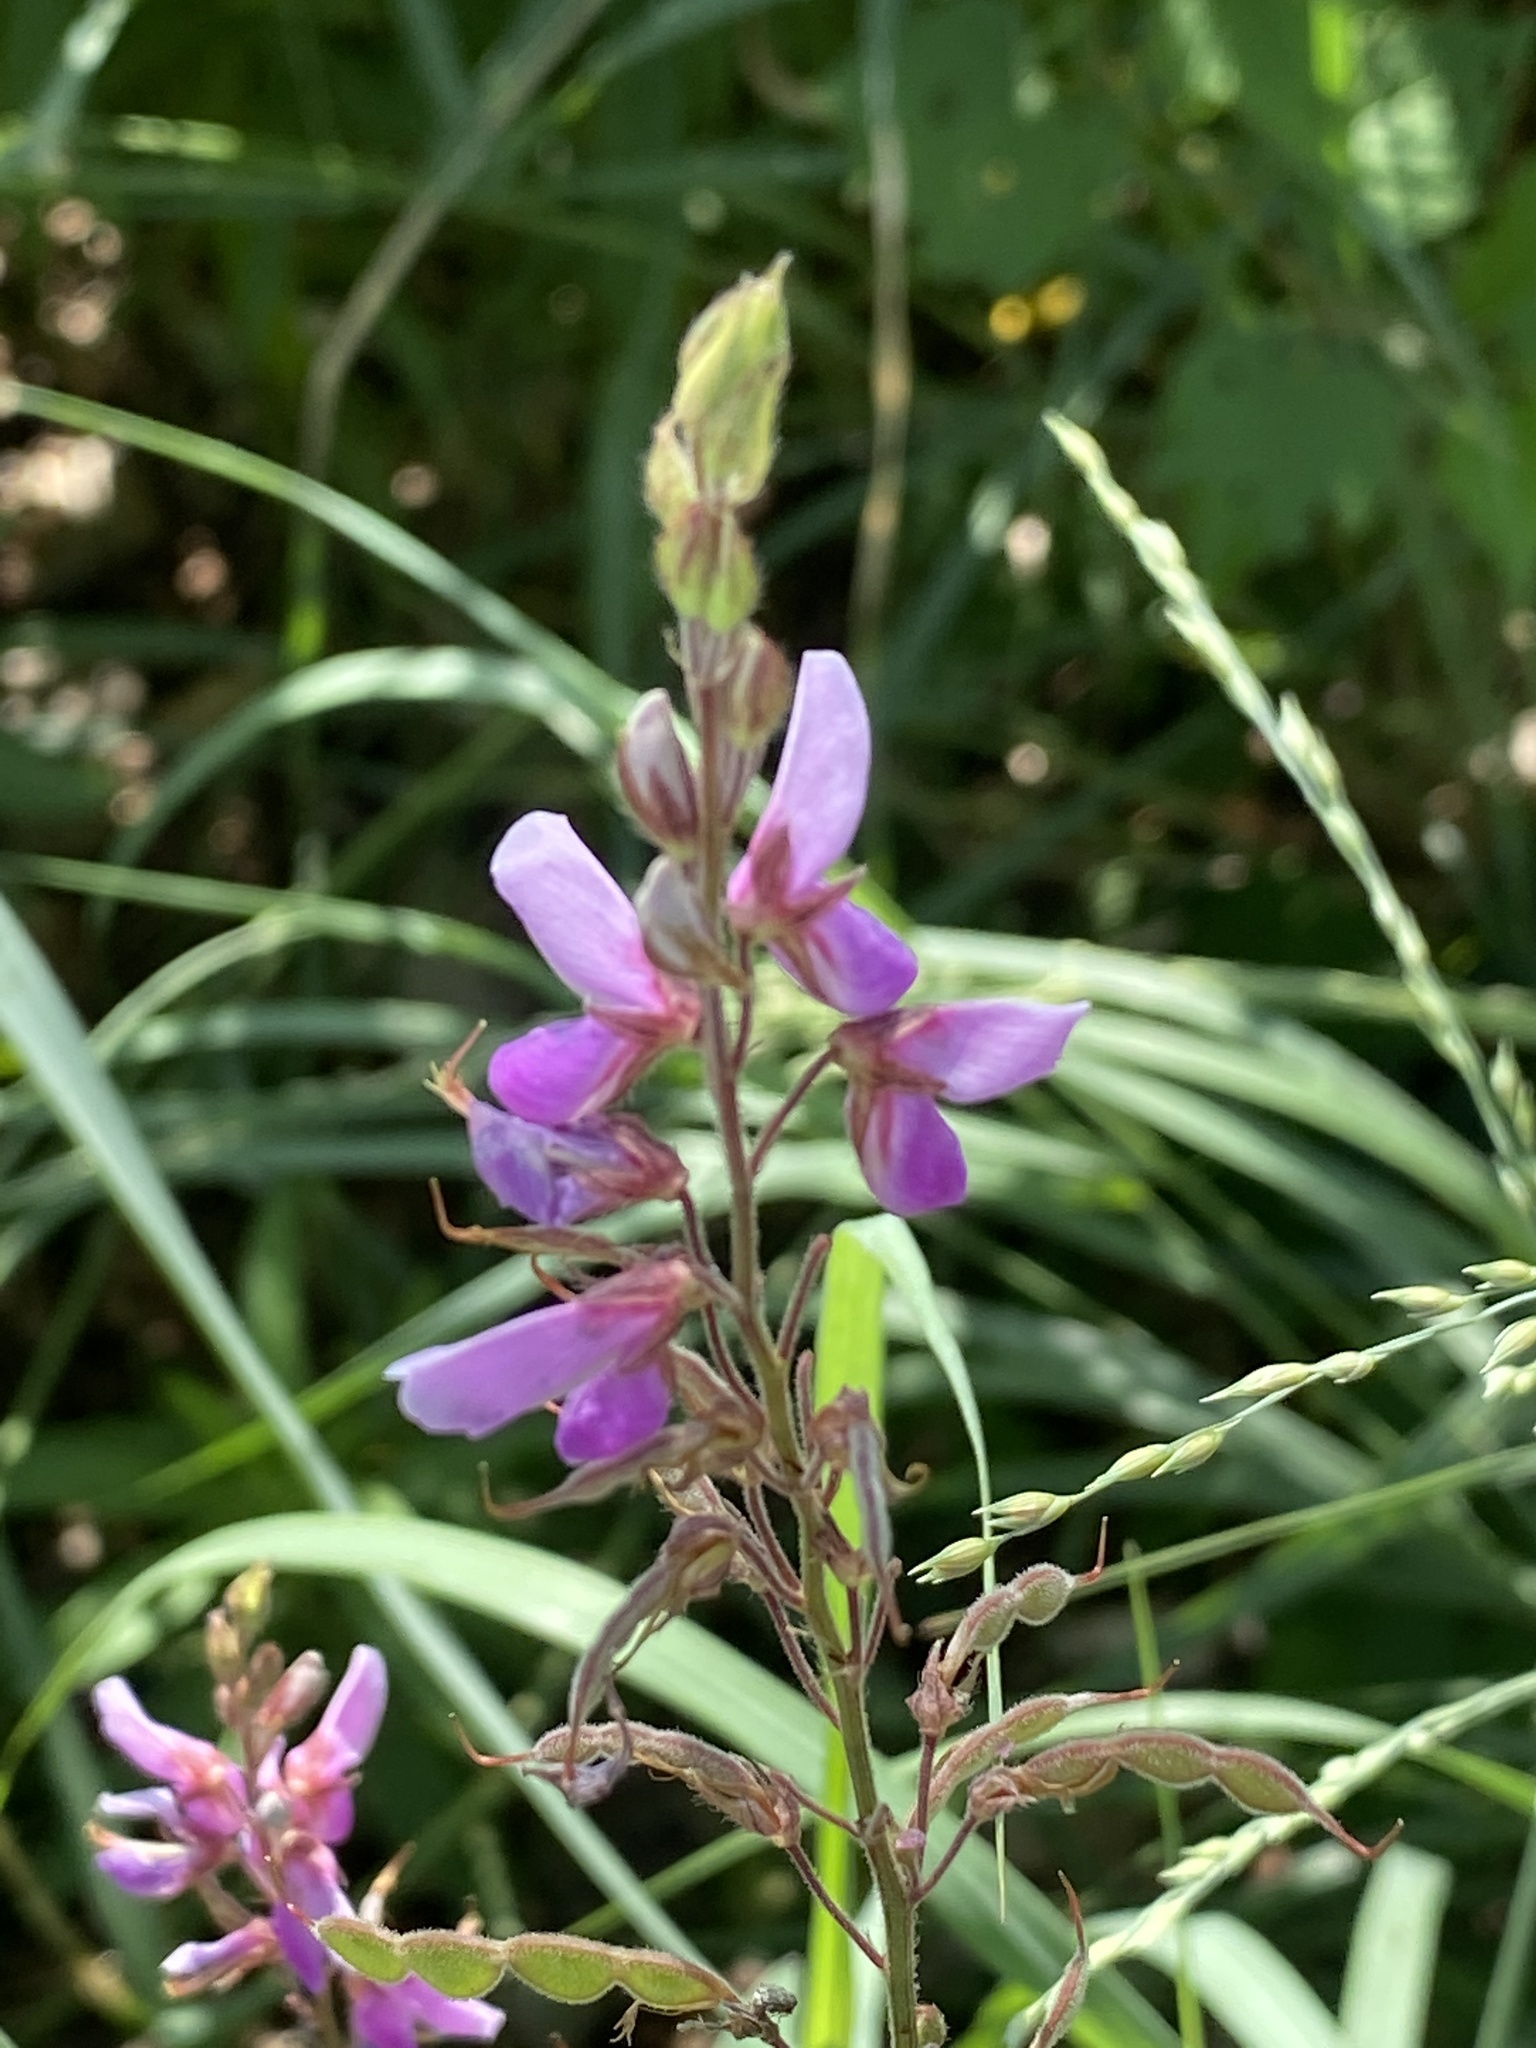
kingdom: Plantae
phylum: Tracheophyta
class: Magnoliopsida
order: Fabales
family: Fabaceae
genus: Desmodium
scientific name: Desmodium canadense
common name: Canada tick-trefoil
